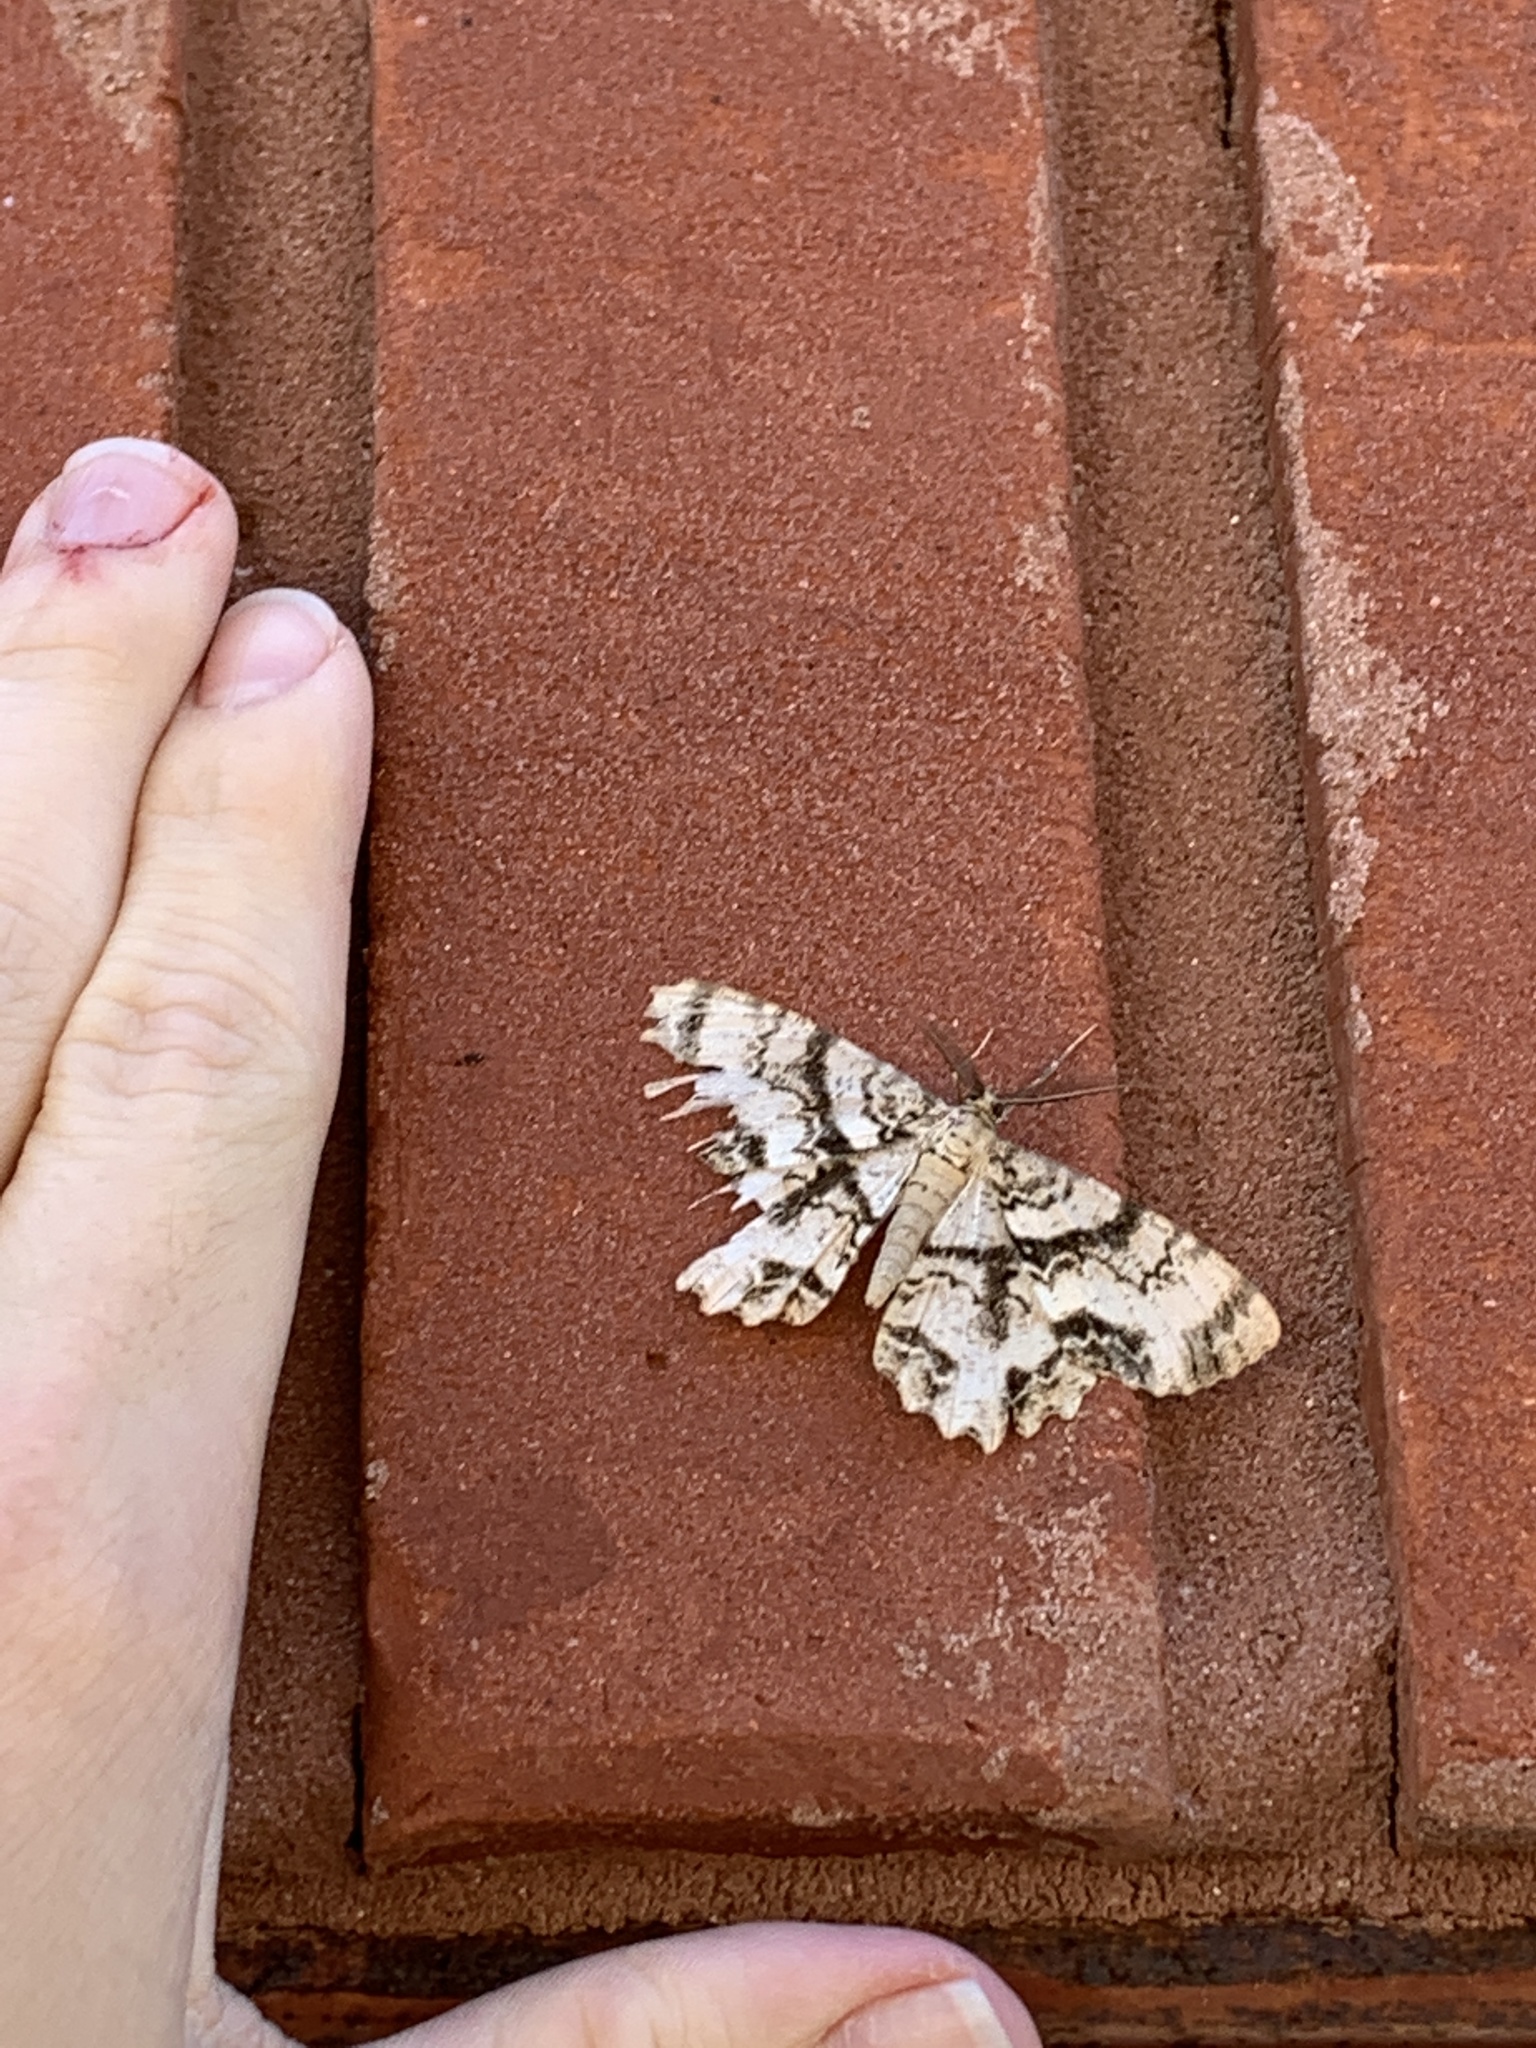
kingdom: Animalia
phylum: Arthropoda
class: Insecta
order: Lepidoptera
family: Geometridae
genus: Epimecis
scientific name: Epimecis hortaria
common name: Tulip-tree beauty
